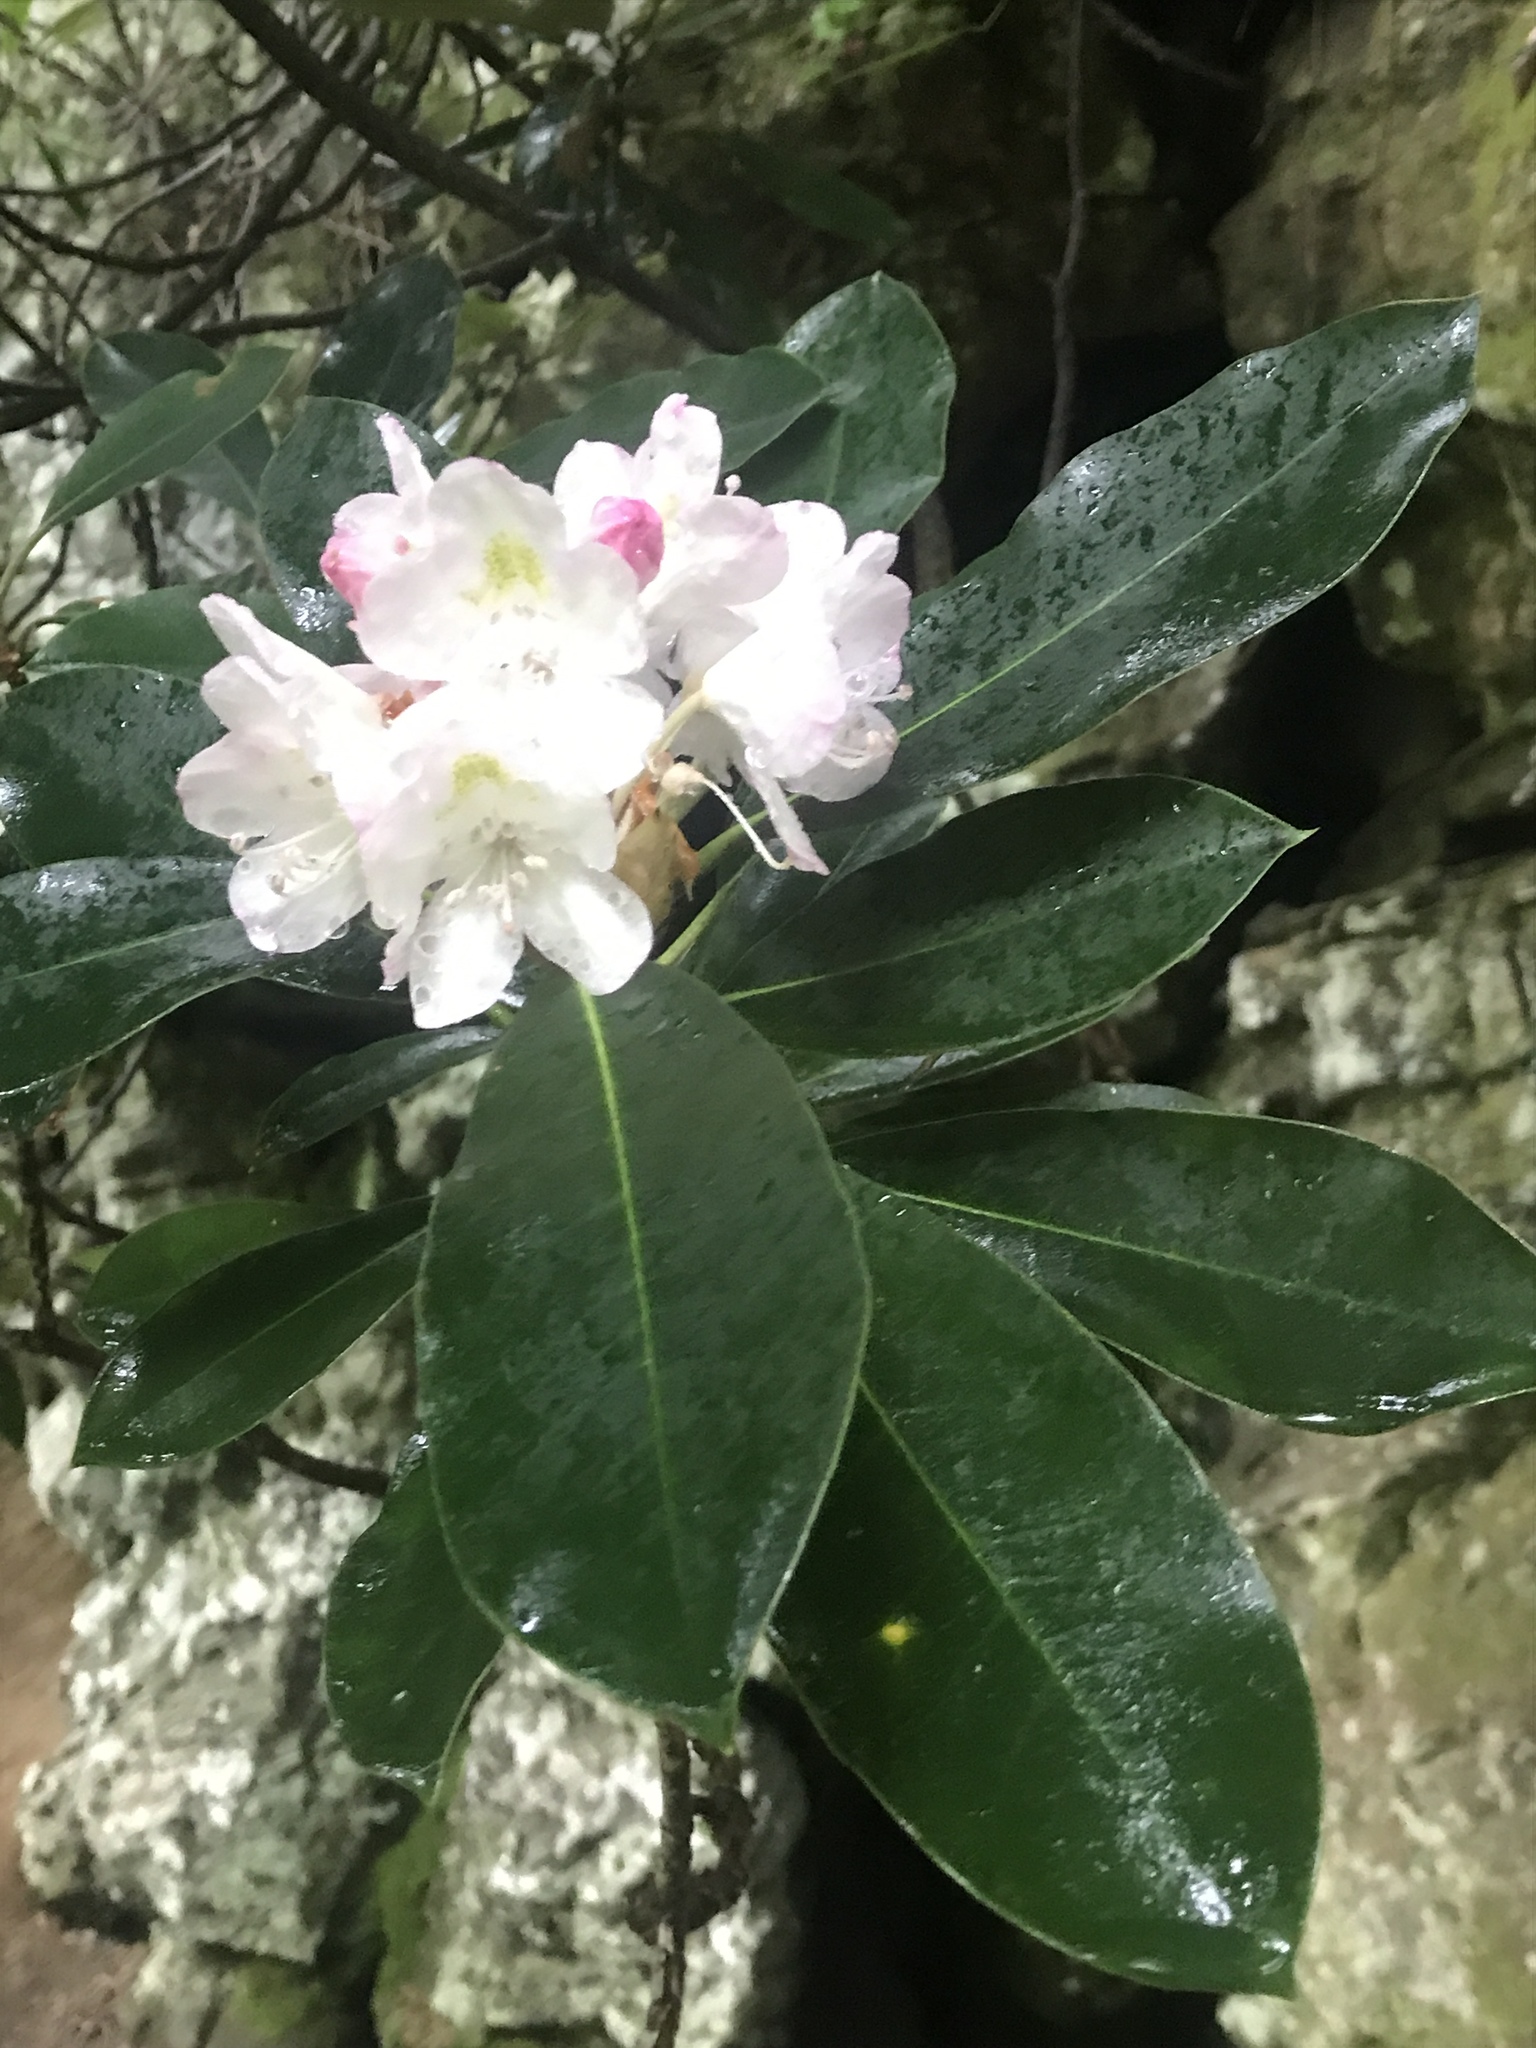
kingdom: Plantae
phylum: Tracheophyta
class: Magnoliopsida
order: Ericales
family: Ericaceae
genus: Rhododendron
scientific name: Rhododendron maximum
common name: Great rhododendron
